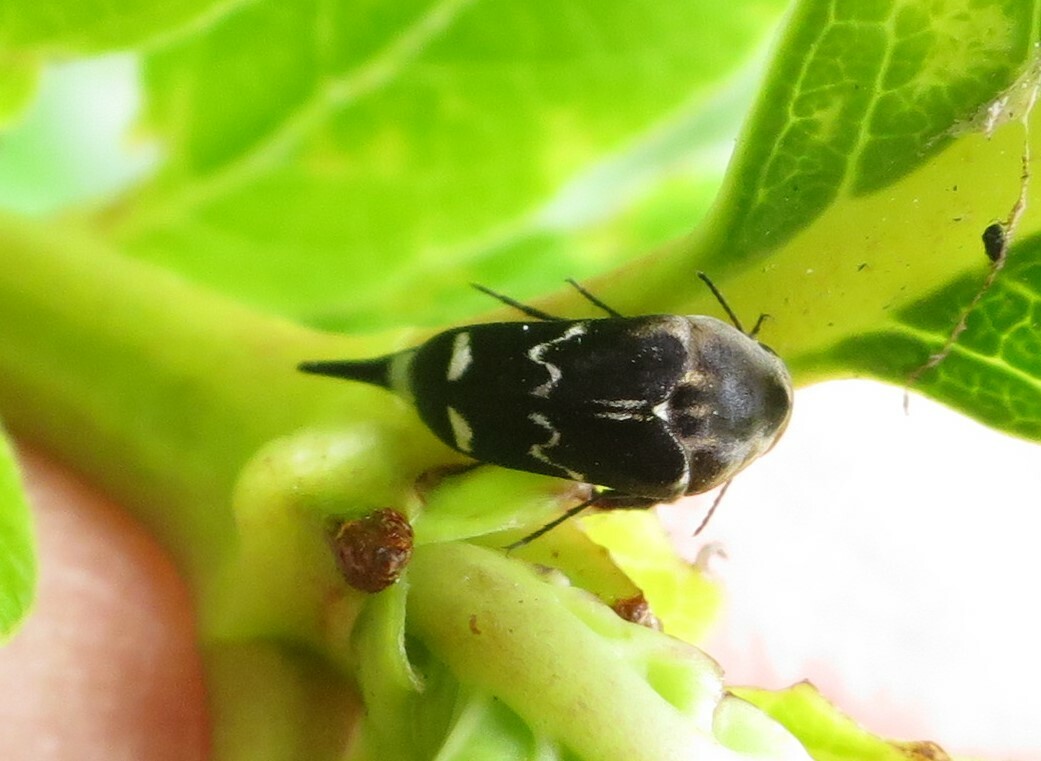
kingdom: Animalia
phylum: Arthropoda
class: Insecta
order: Coleoptera
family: Mordellidae
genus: Mordella
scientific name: Mordella
